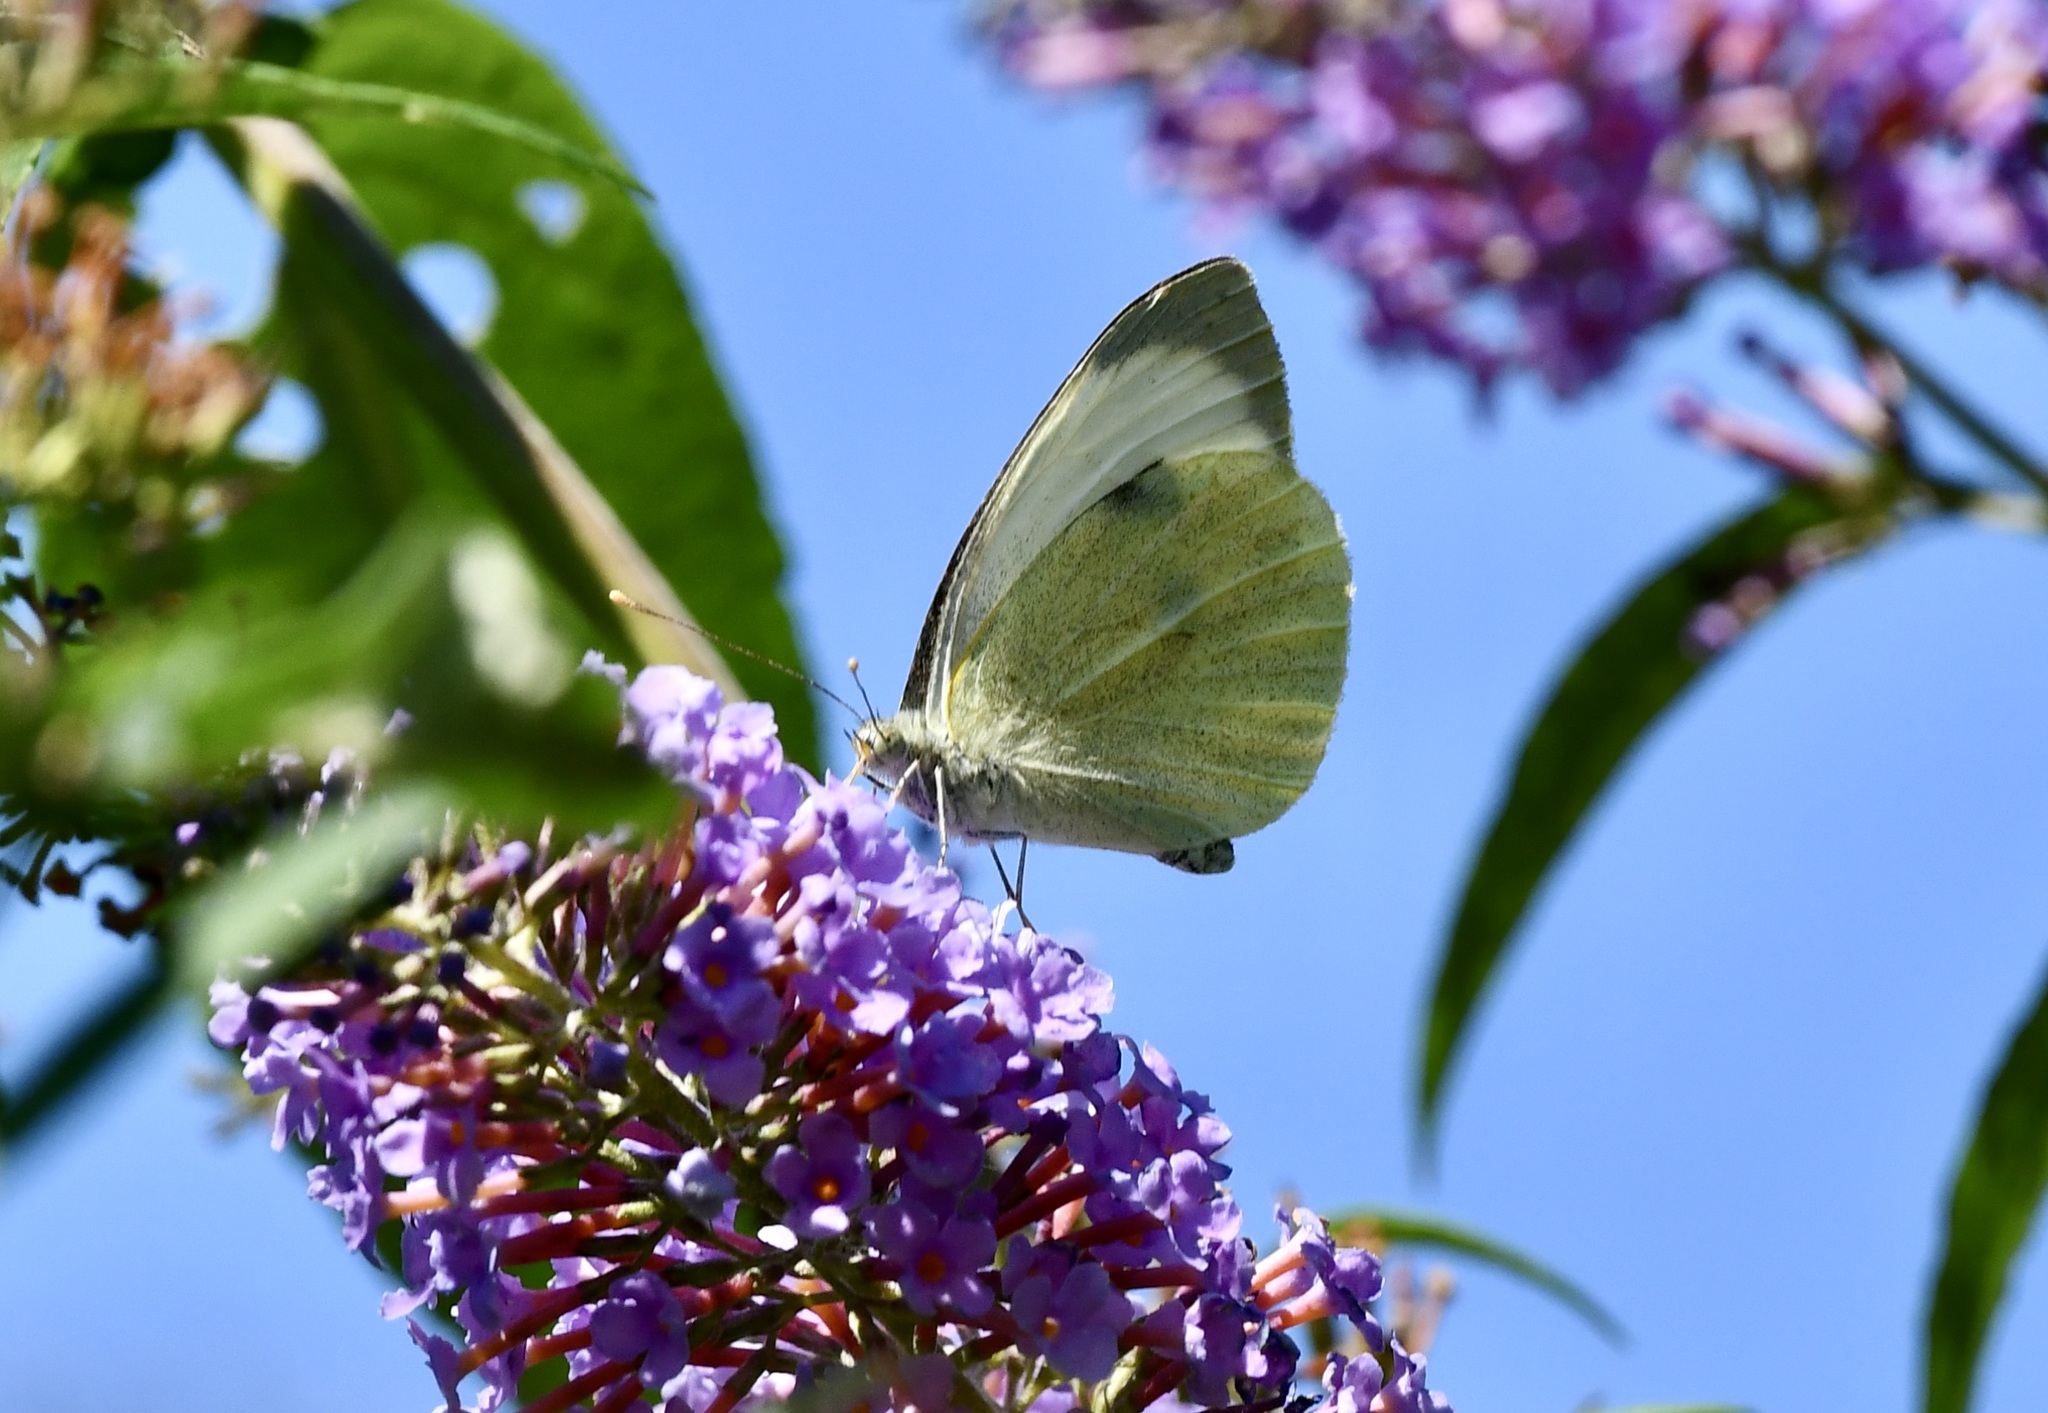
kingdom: Animalia
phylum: Arthropoda
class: Insecta
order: Lepidoptera
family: Pieridae
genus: Pieris
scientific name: Pieris brassicae
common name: Large white
